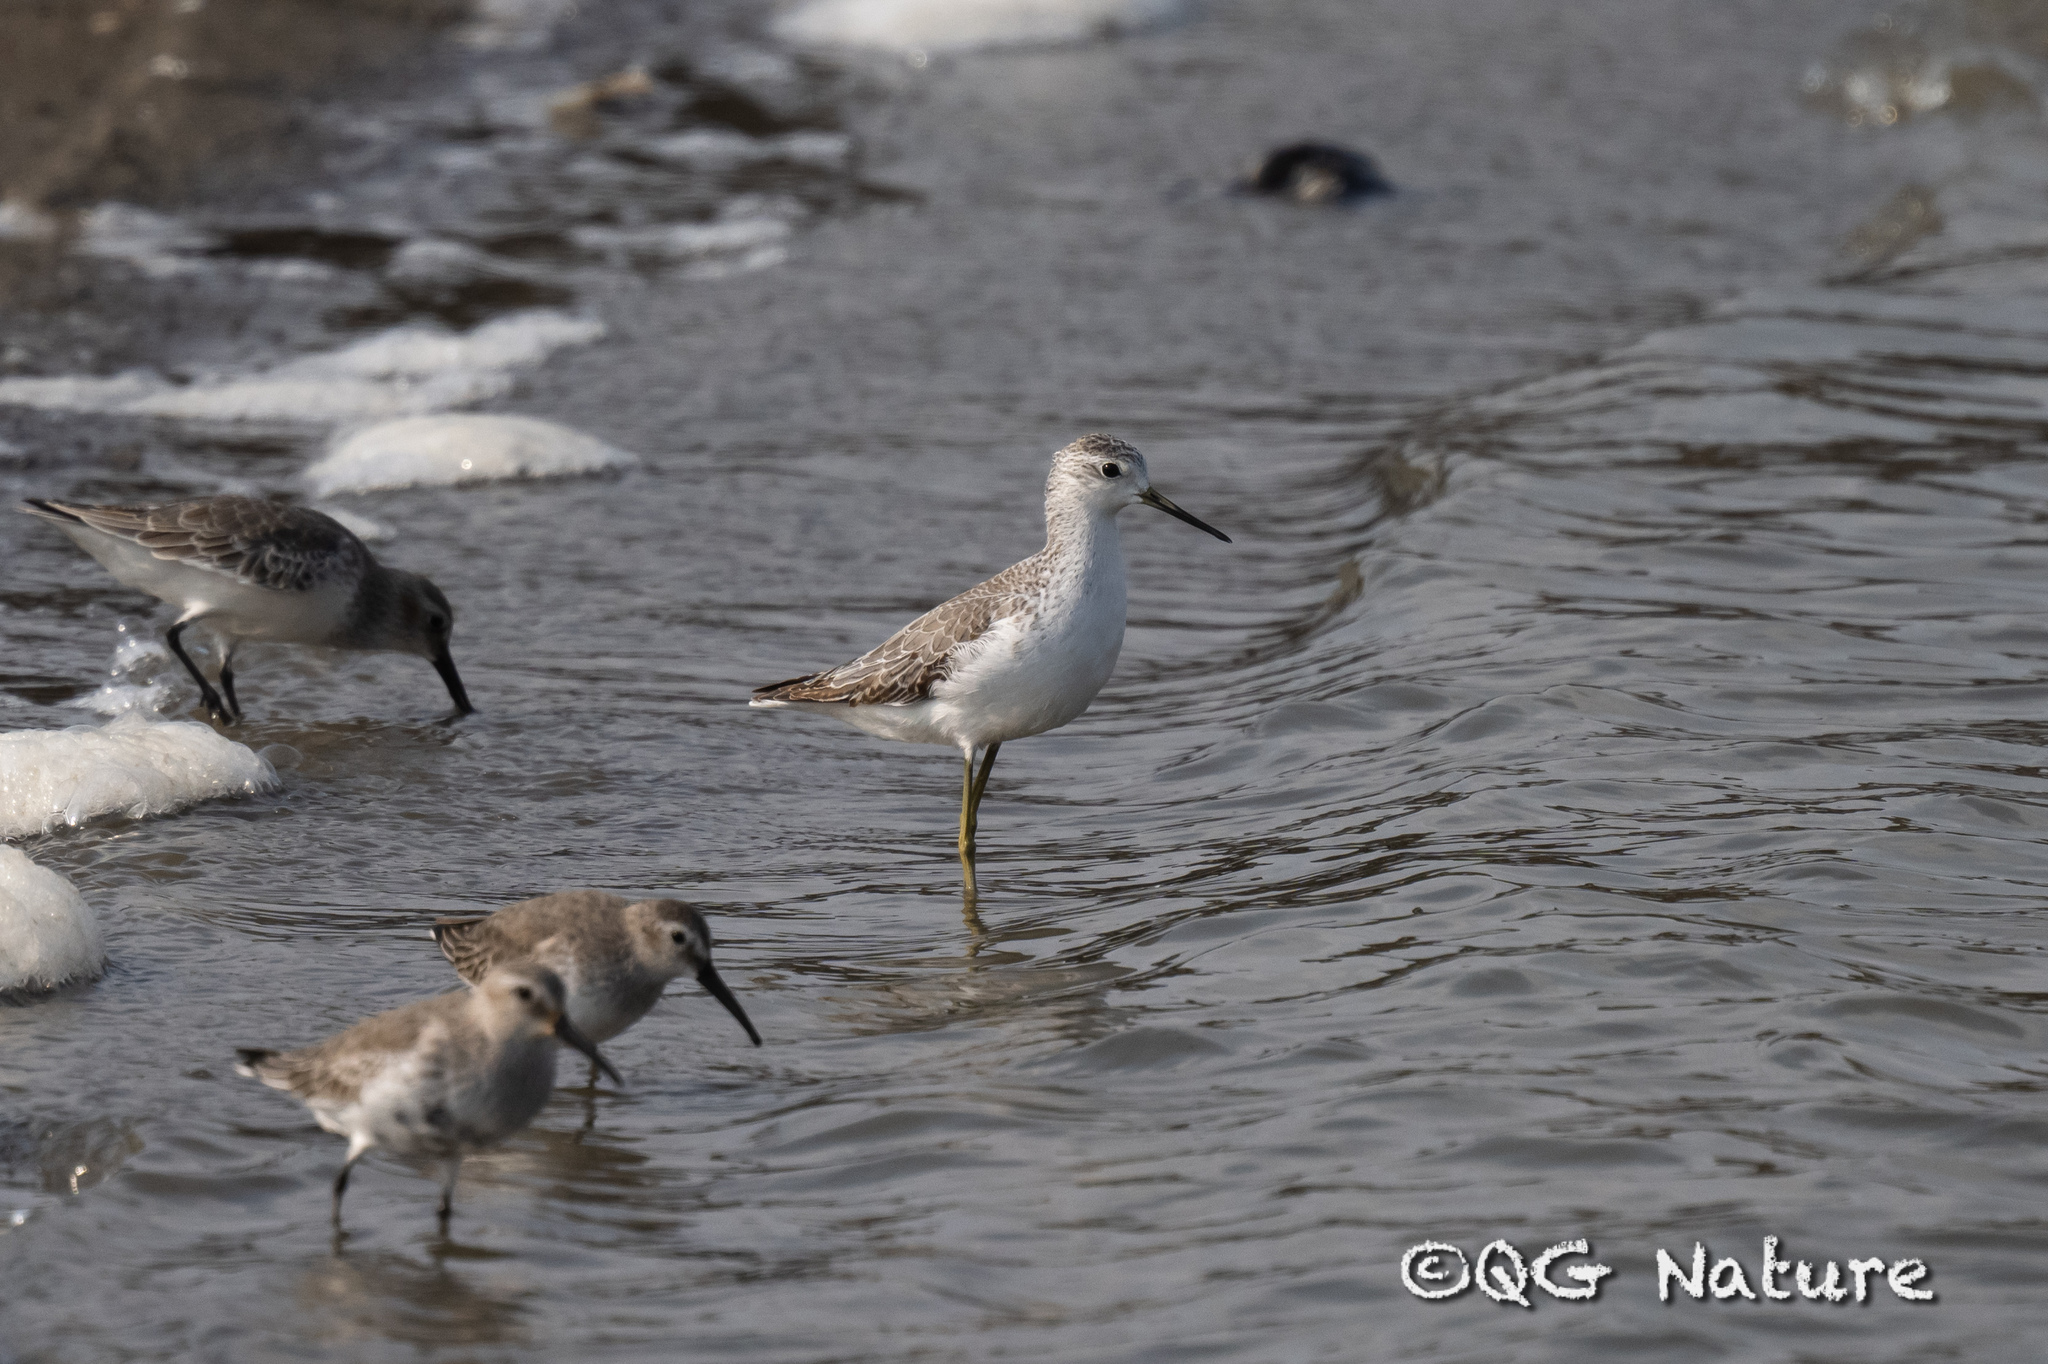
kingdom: Animalia
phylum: Chordata
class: Aves
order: Charadriiformes
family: Scolopacidae
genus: Tringa
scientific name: Tringa stagnatilis
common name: Marsh sandpiper
